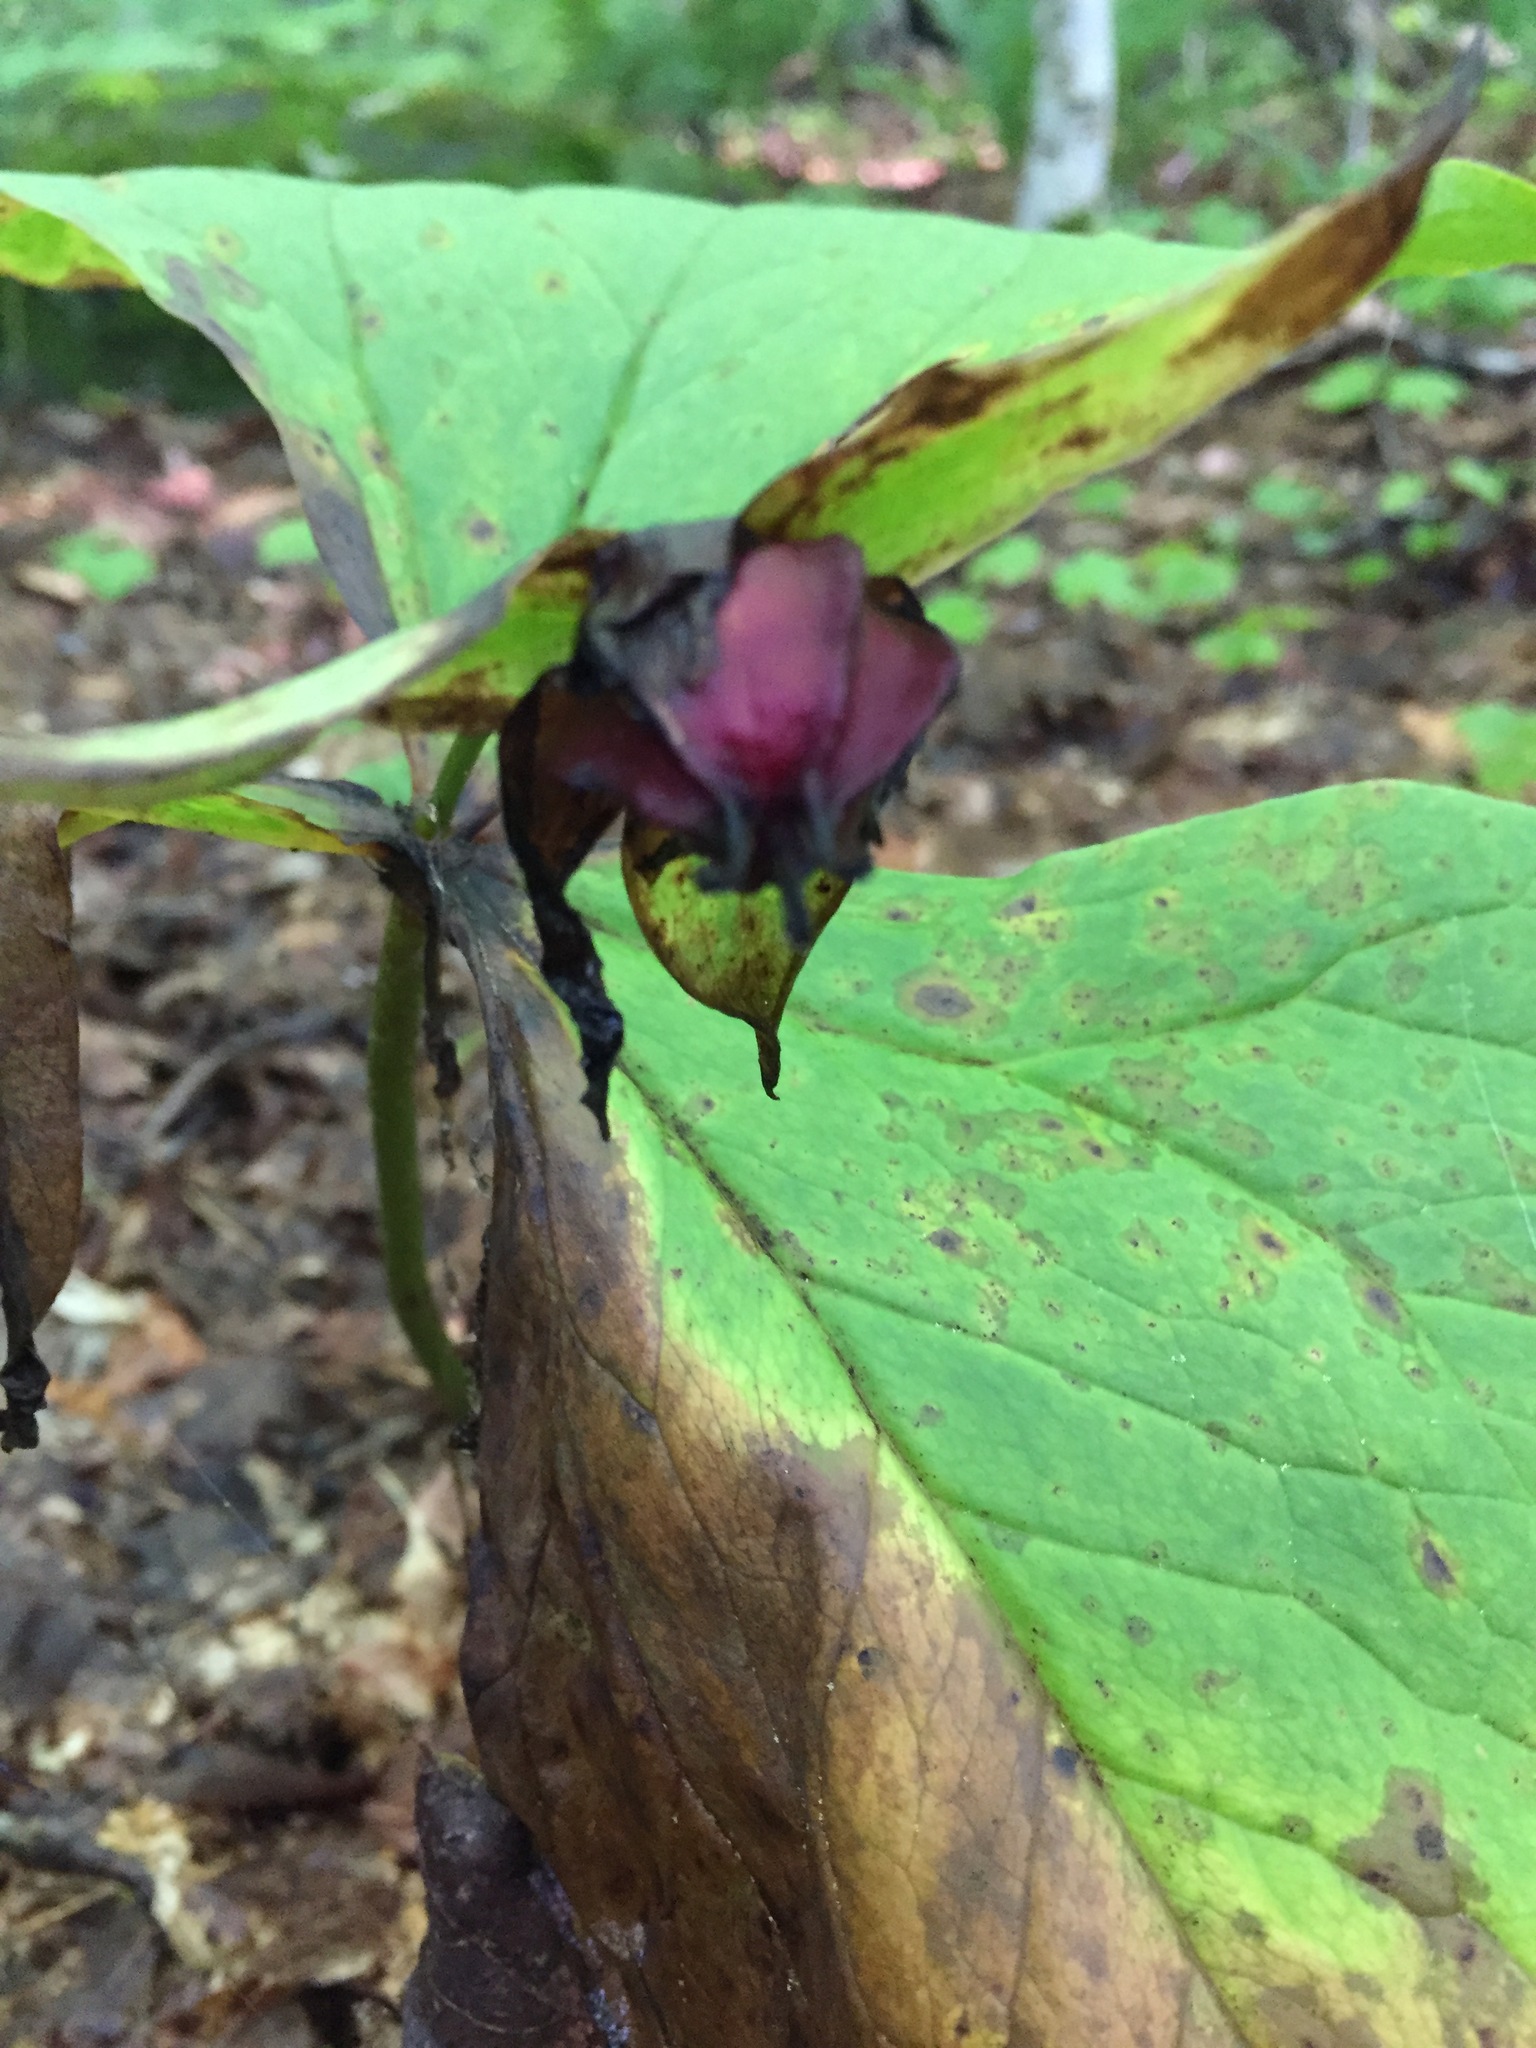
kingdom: Plantae
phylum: Tracheophyta
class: Liliopsida
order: Liliales
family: Melanthiaceae
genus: Trillium
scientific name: Trillium erectum
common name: Purple trillium
